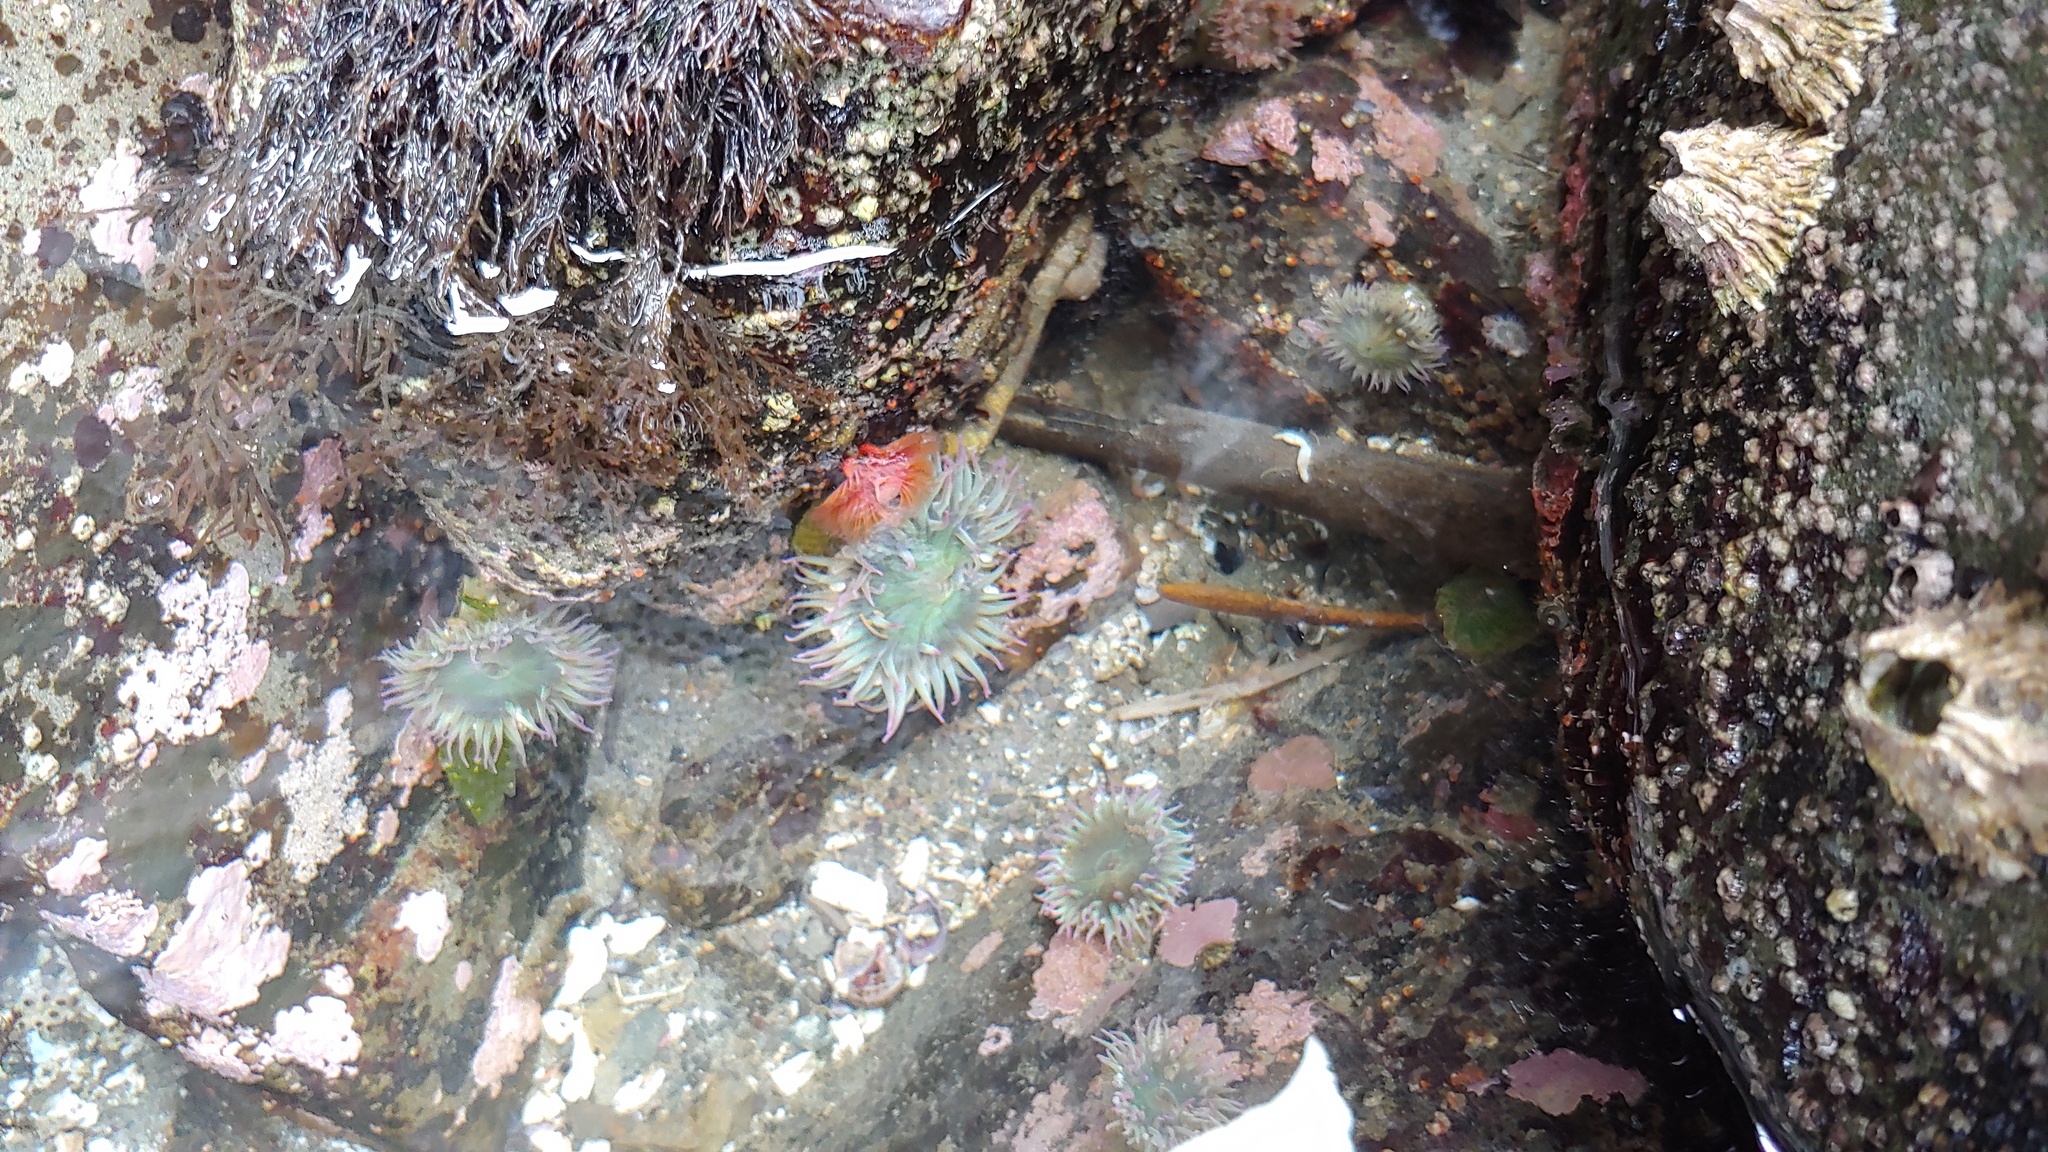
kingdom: Animalia
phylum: Cnidaria
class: Anthozoa
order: Actiniaria
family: Actiniidae
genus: Anthopleura
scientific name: Anthopleura elegantissima
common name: Clonal anemone
